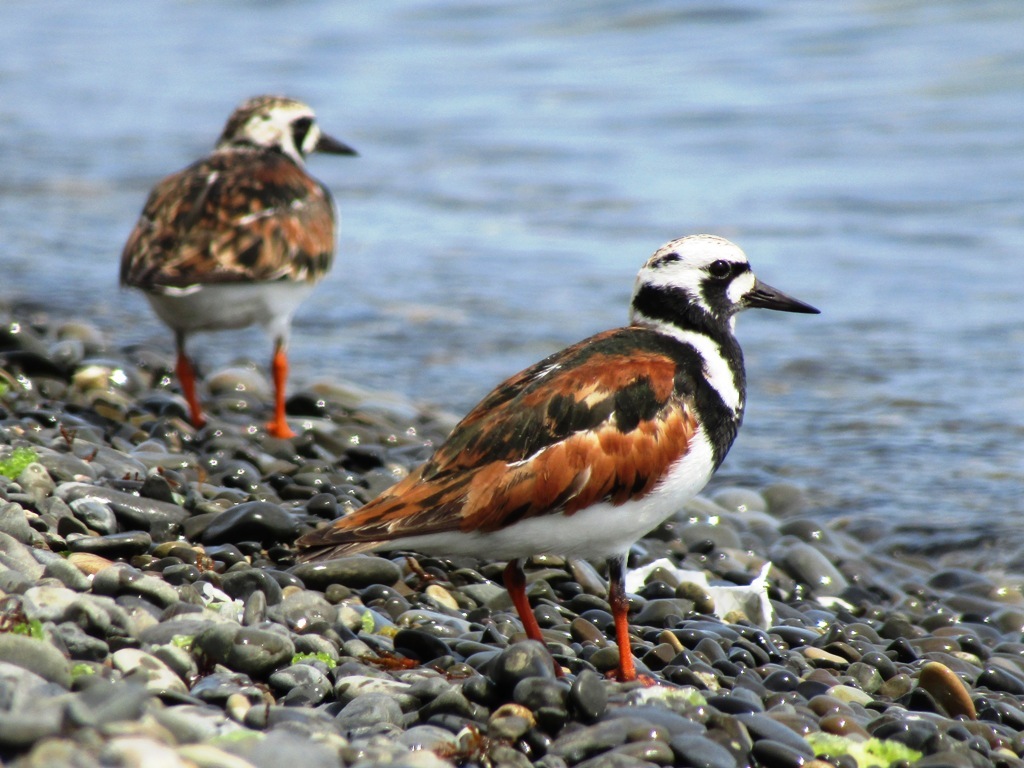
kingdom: Animalia
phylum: Chordata
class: Aves
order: Charadriiformes
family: Scolopacidae
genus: Arenaria
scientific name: Arenaria interpres
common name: Ruddy turnstone
